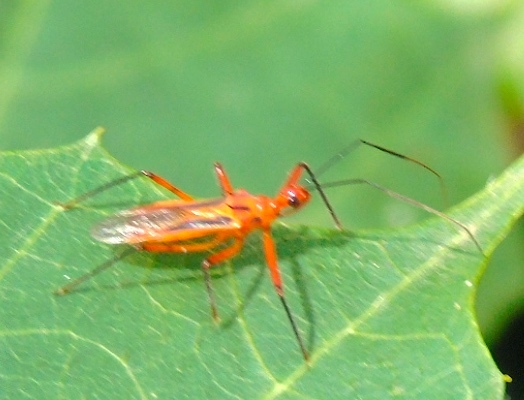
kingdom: Animalia
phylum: Arthropoda
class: Insecta
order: Hemiptera
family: Reduviidae
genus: Repipta
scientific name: Repipta
